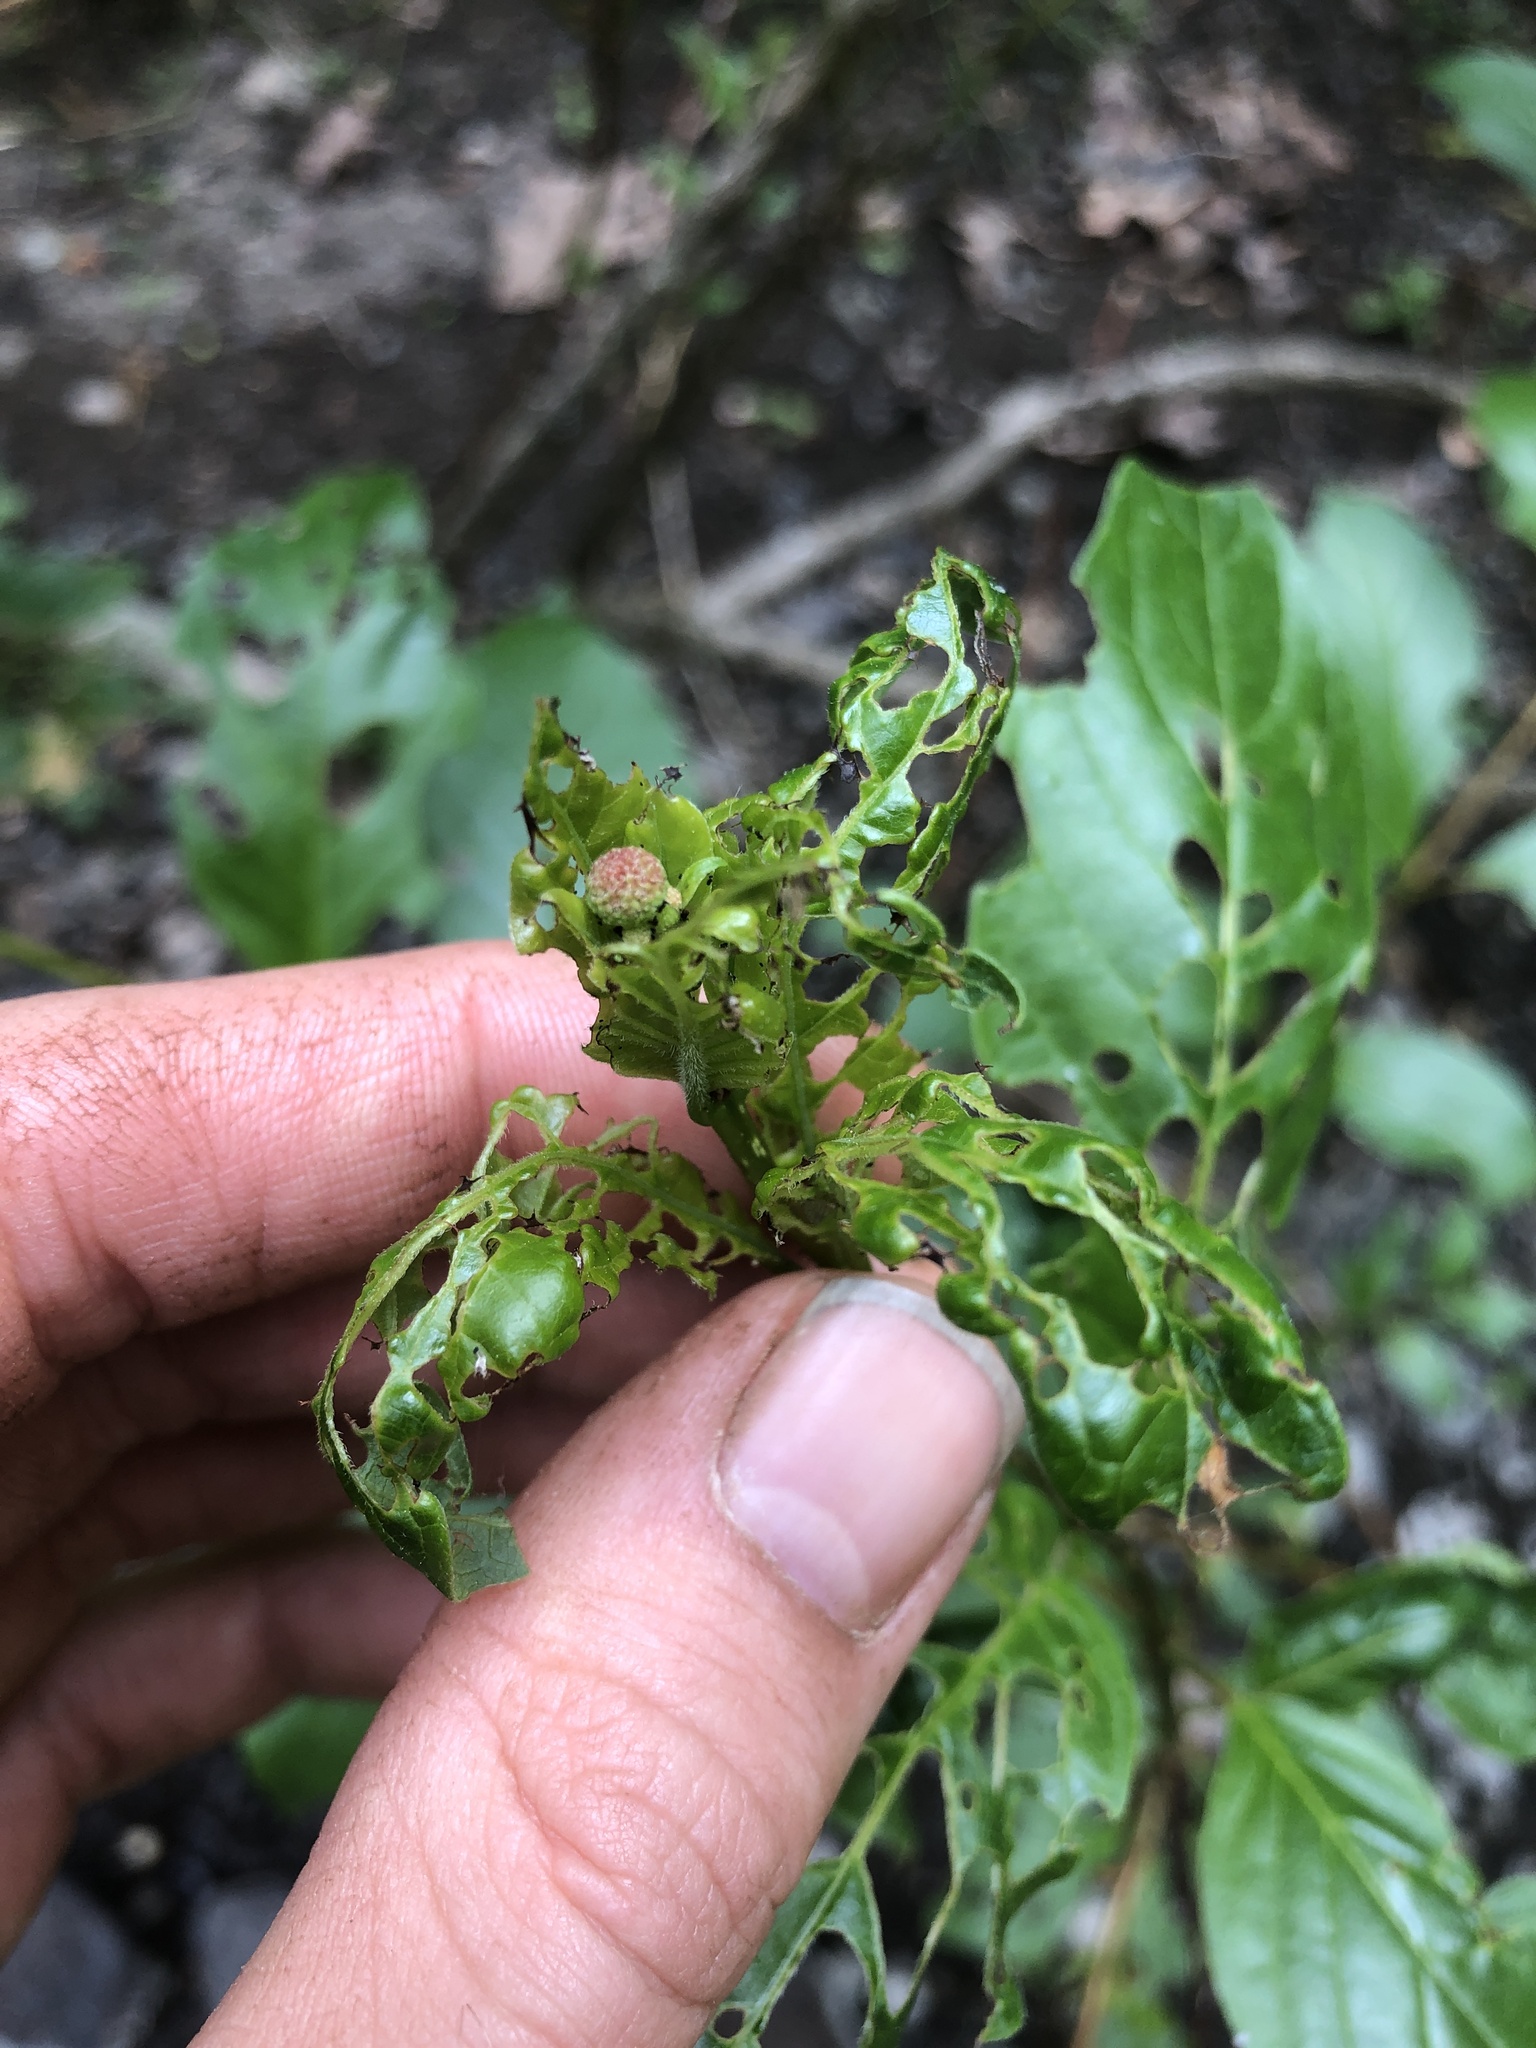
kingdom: Plantae
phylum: Tracheophyta
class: Magnoliopsida
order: Gentianales
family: Rubiaceae
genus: Cephalanthus
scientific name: Cephalanthus occidentalis
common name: Button-willow
